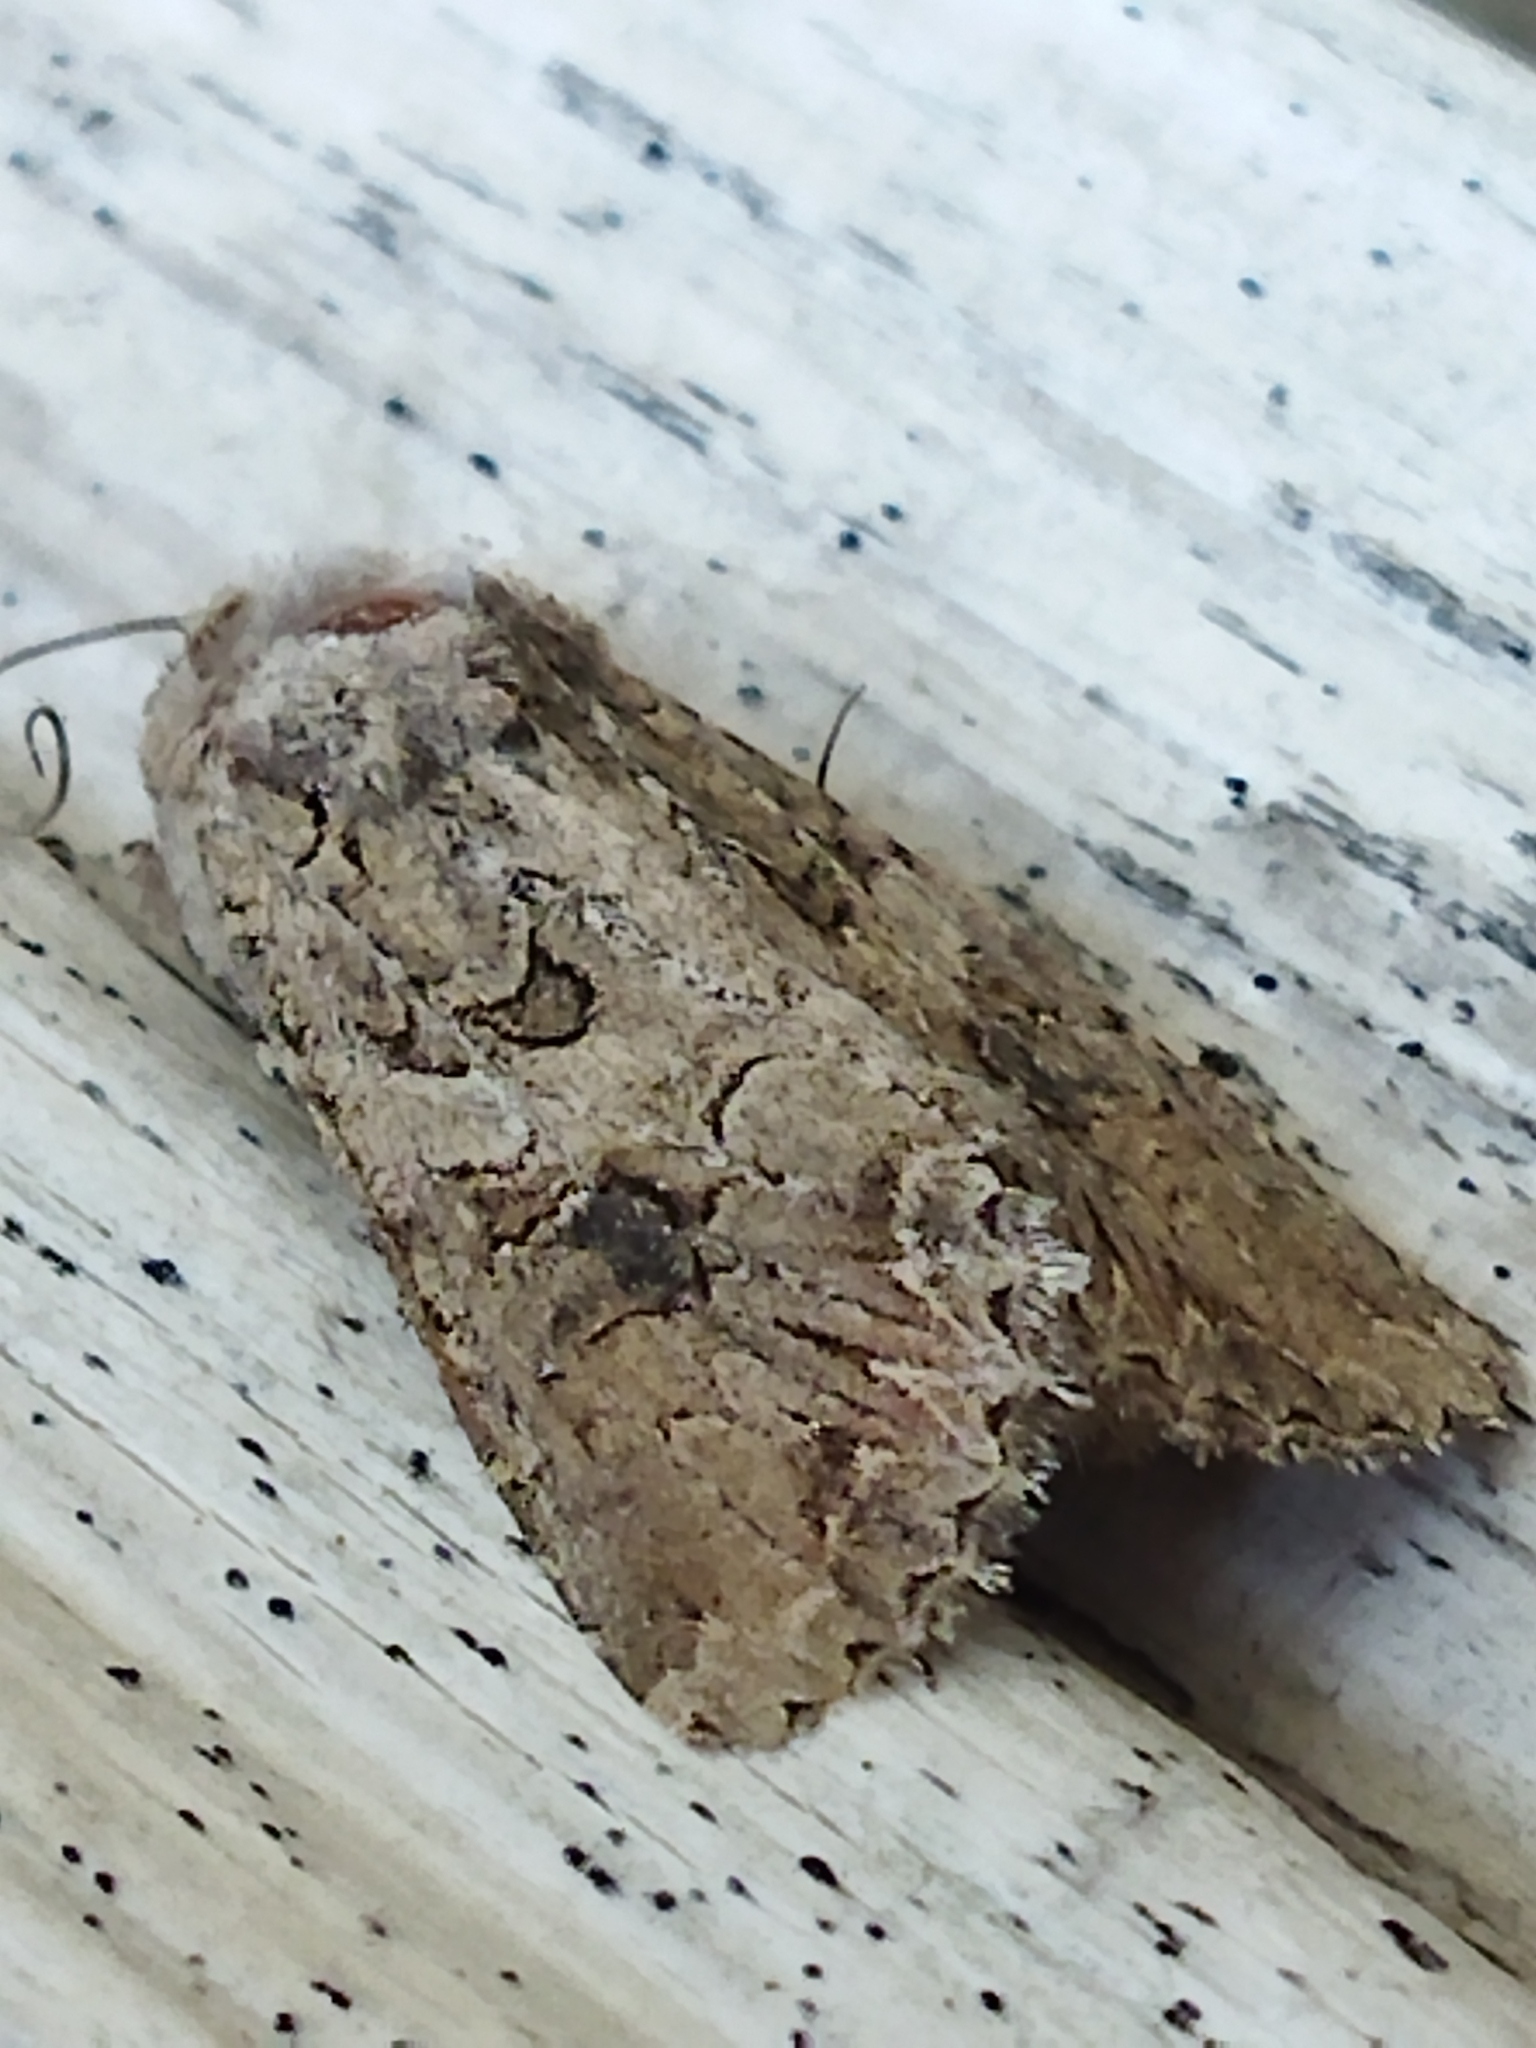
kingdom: Animalia
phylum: Arthropoda
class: Insecta
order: Lepidoptera
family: Noctuidae
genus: Anarta
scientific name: Anarta trifolii
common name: Clover cutworm moth
